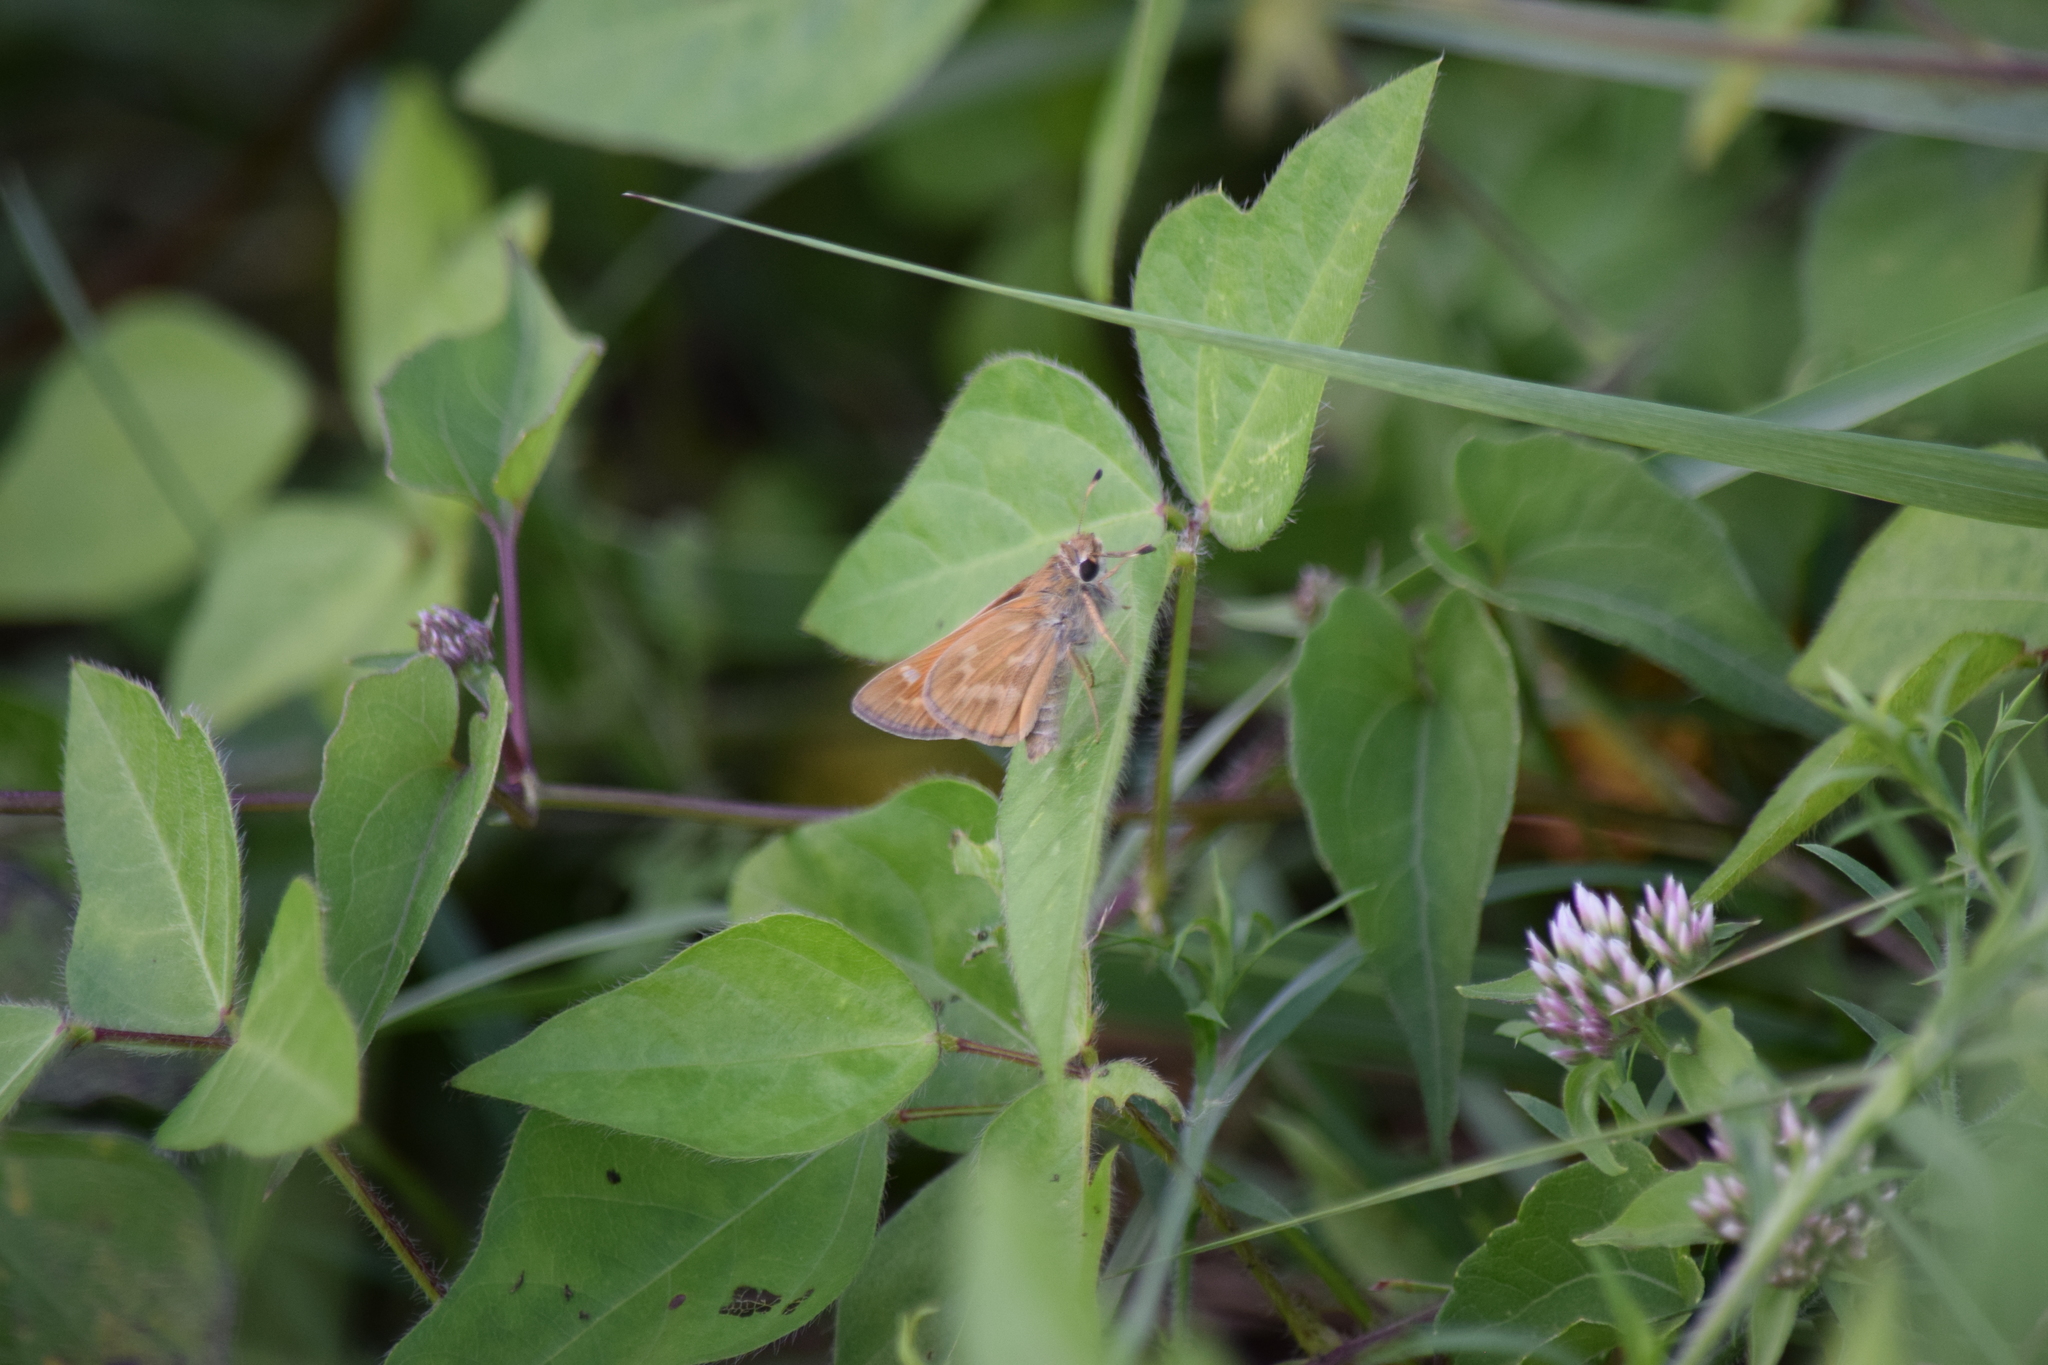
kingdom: Animalia
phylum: Arthropoda
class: Insecta
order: Lepidoptera
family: Hesperiidae
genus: Atalopedes
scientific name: Atalopedes
